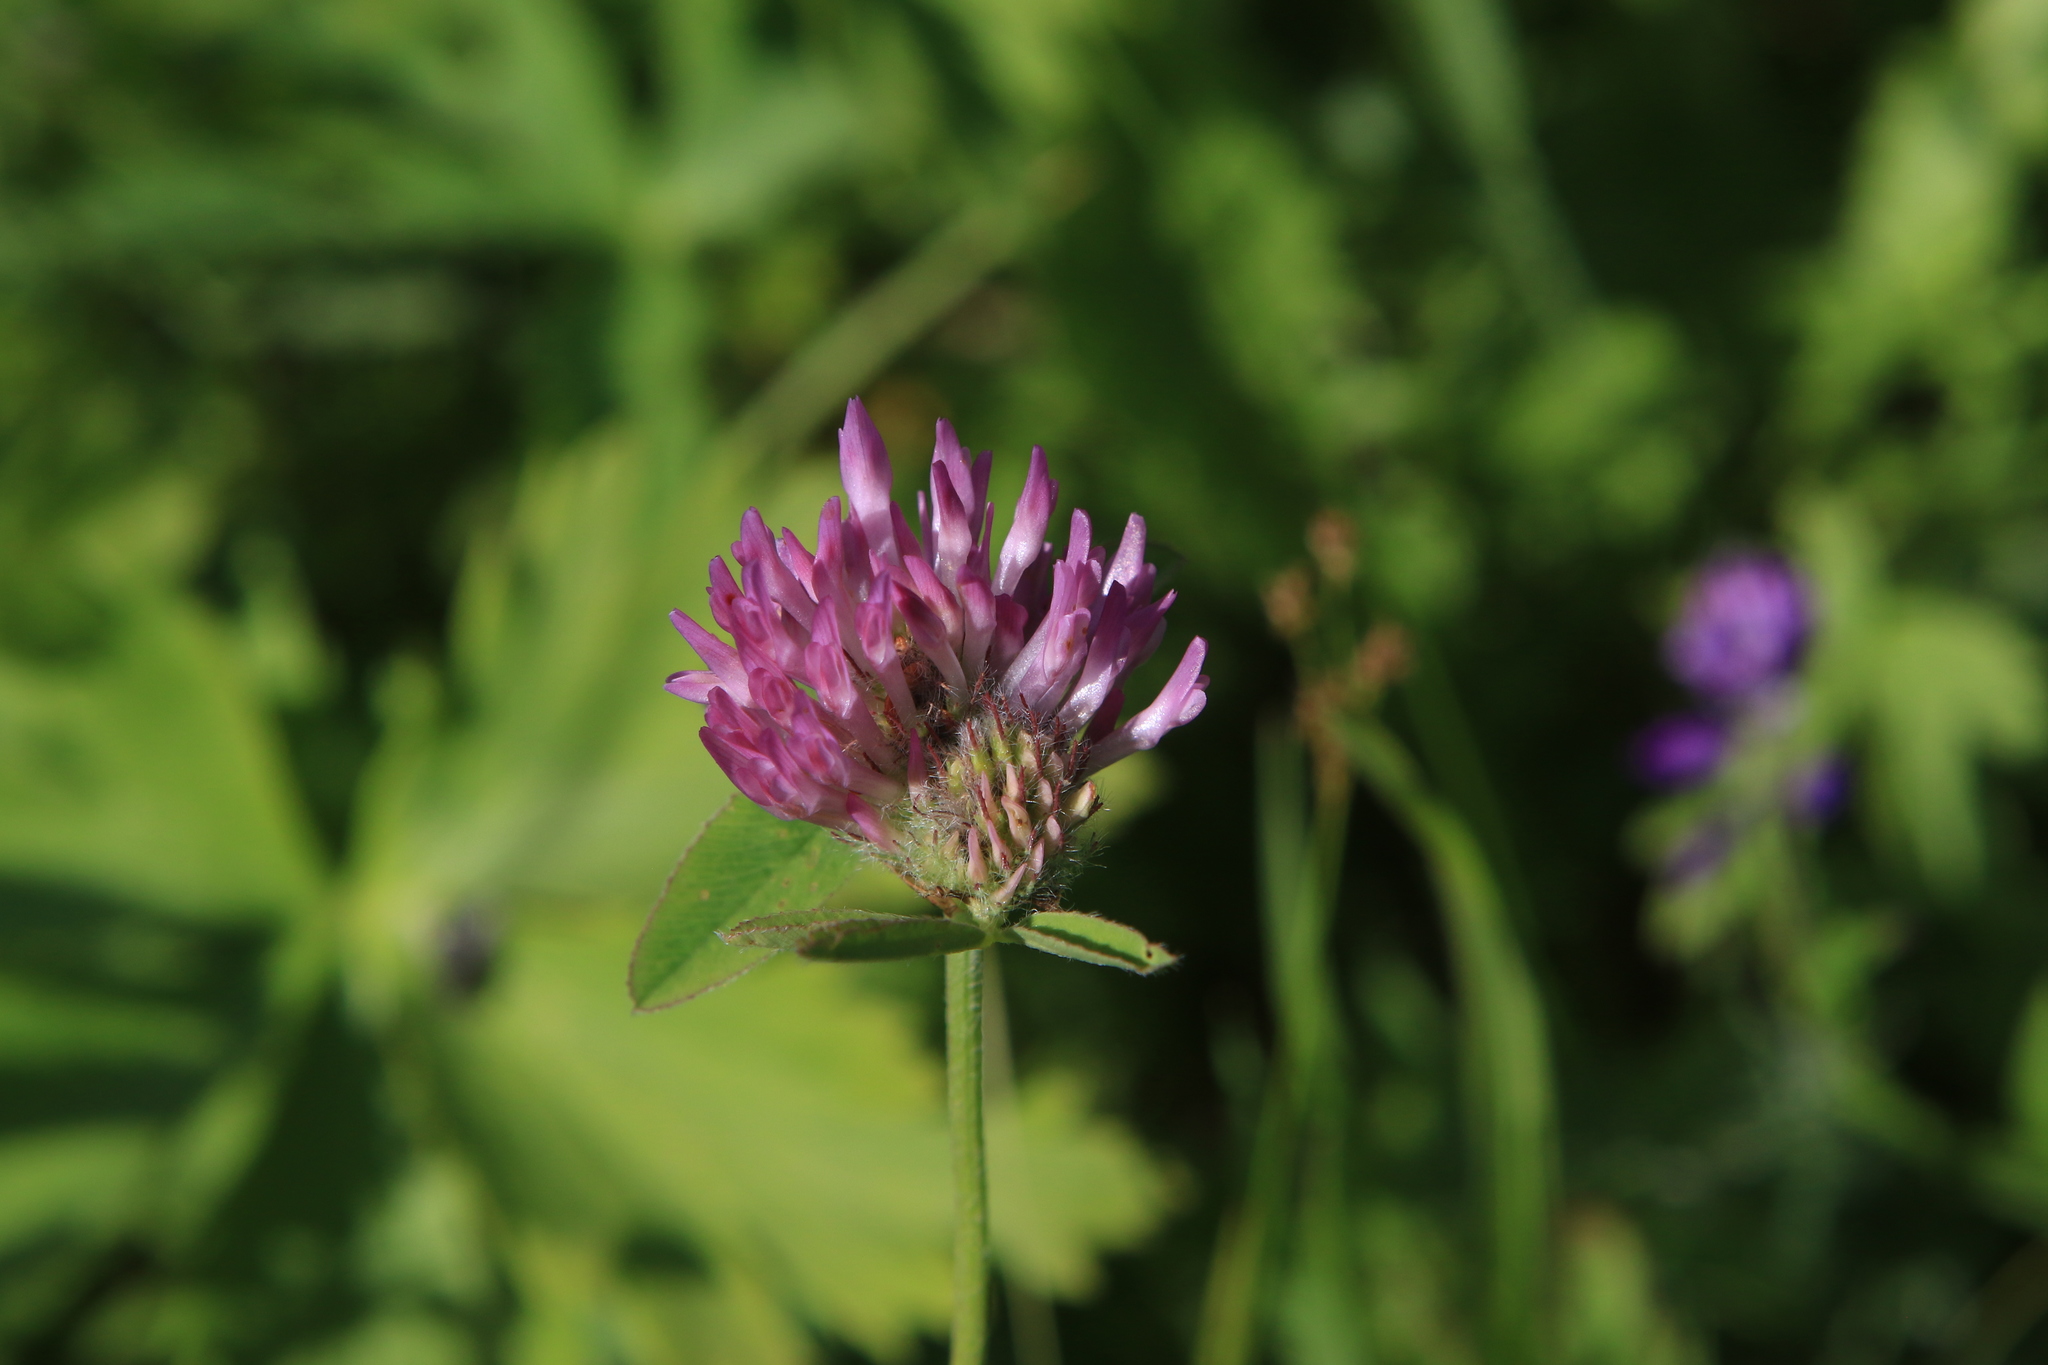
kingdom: Plantae
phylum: Tracheophyta
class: Magnoliopsida
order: Fabales
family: Fabaceae
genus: Trifolium
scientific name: Trifolium pratense
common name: Red clover
